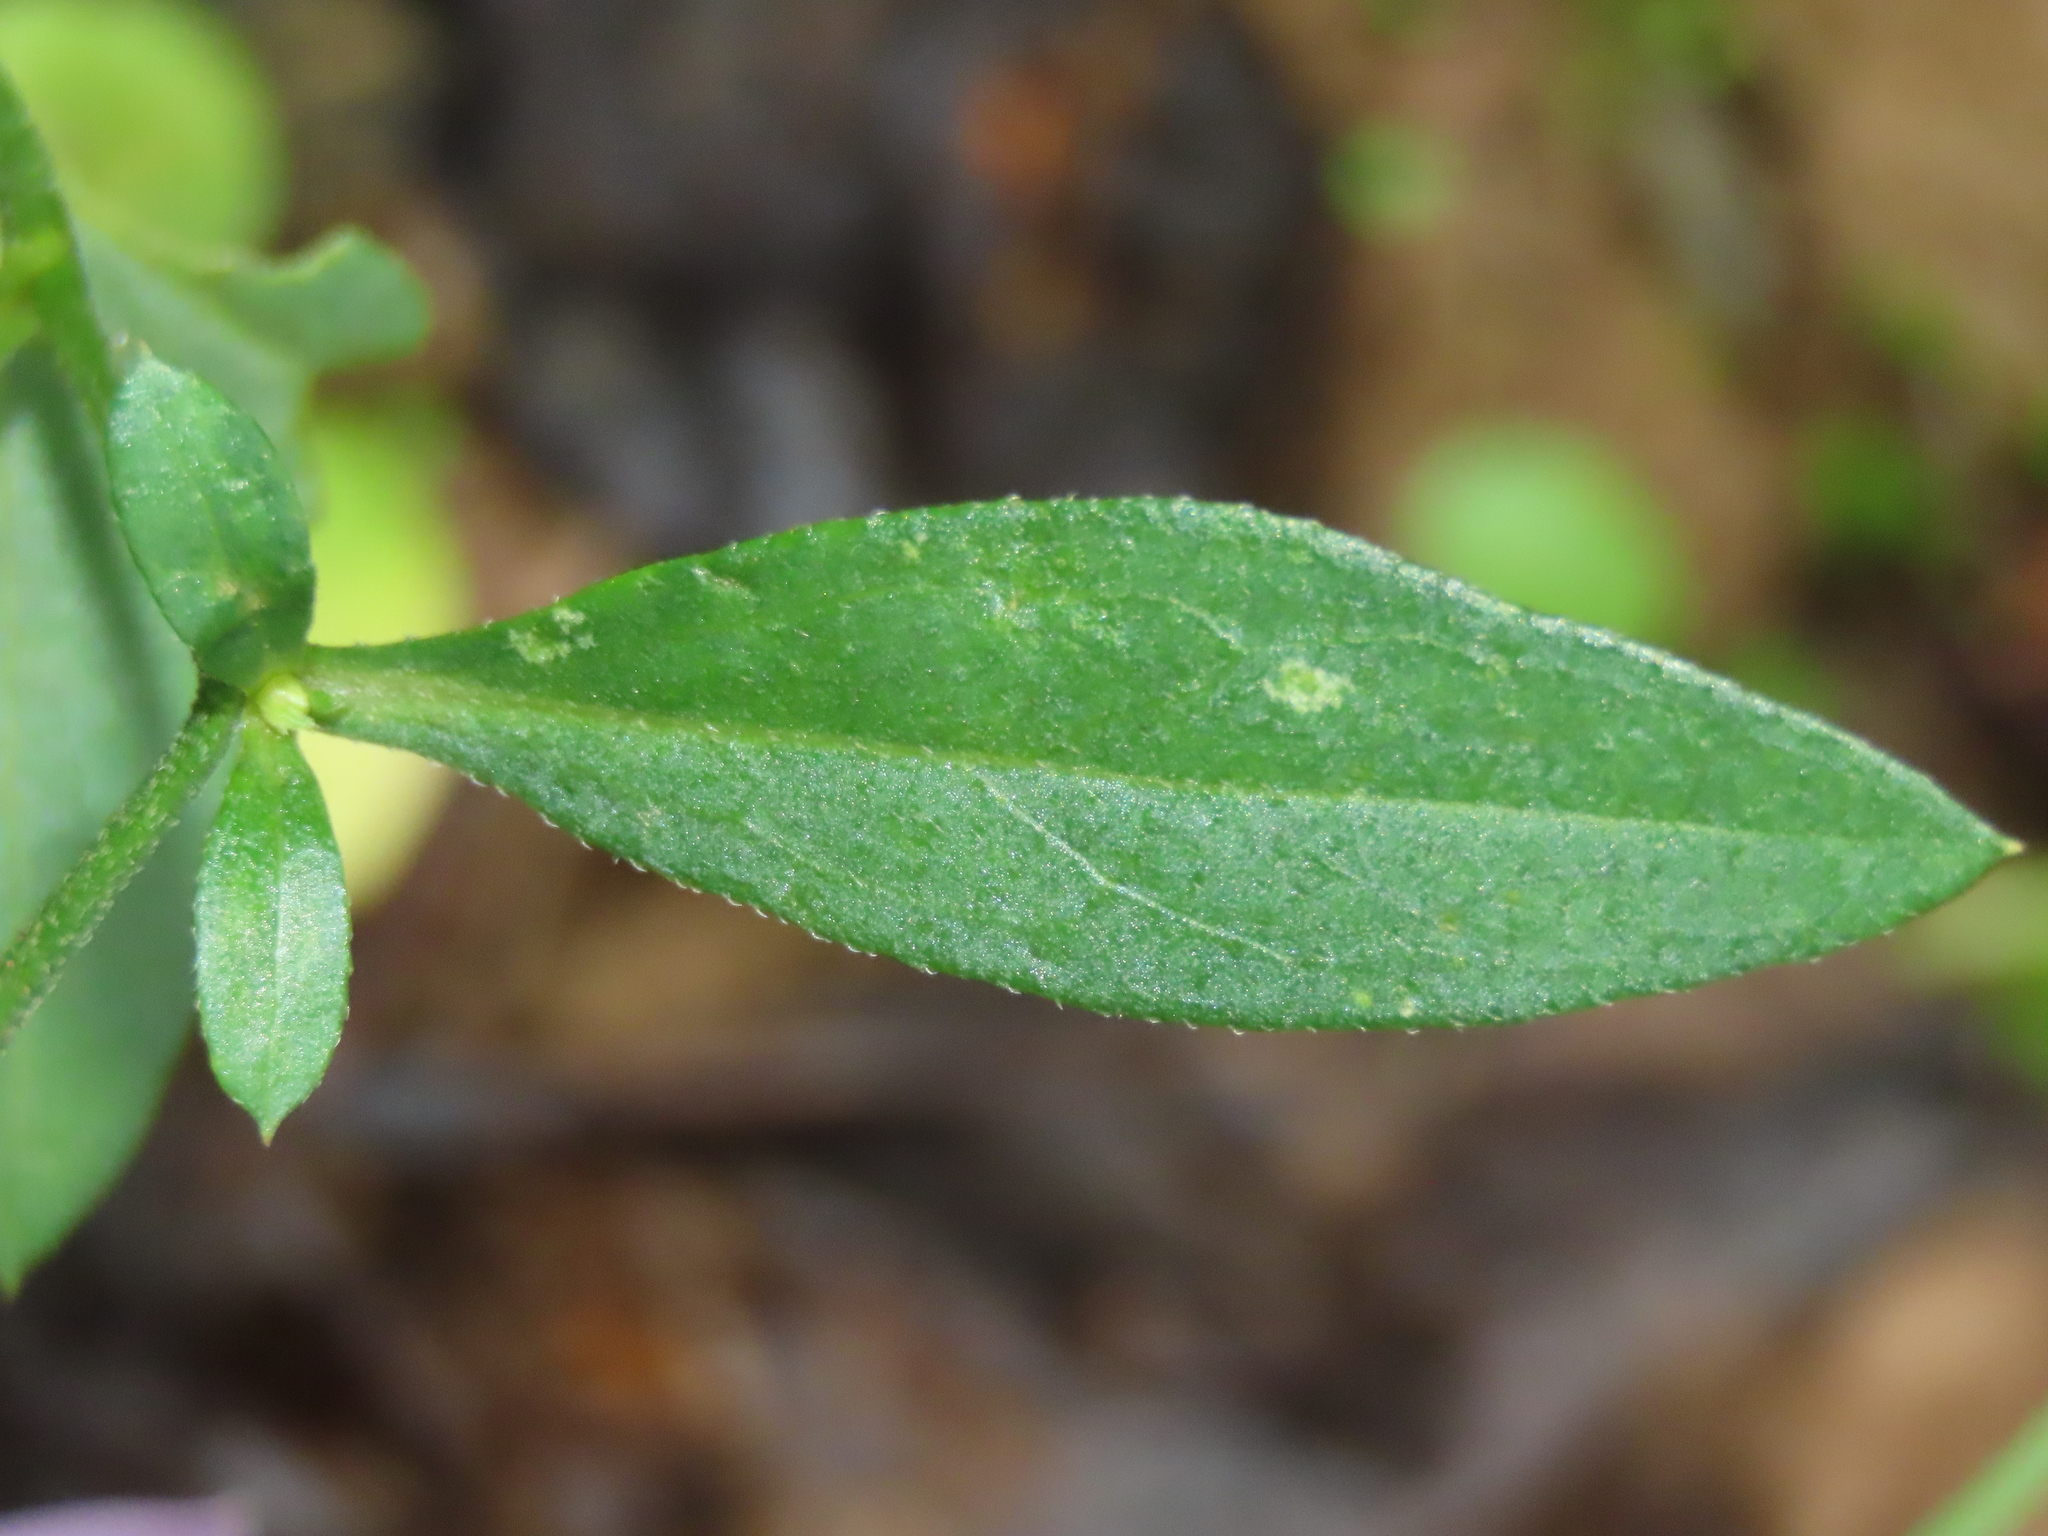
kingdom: Plantae
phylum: Tracheophyta
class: Magnoliopsida
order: Asterales
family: Asteraceae
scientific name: Asteraceae
